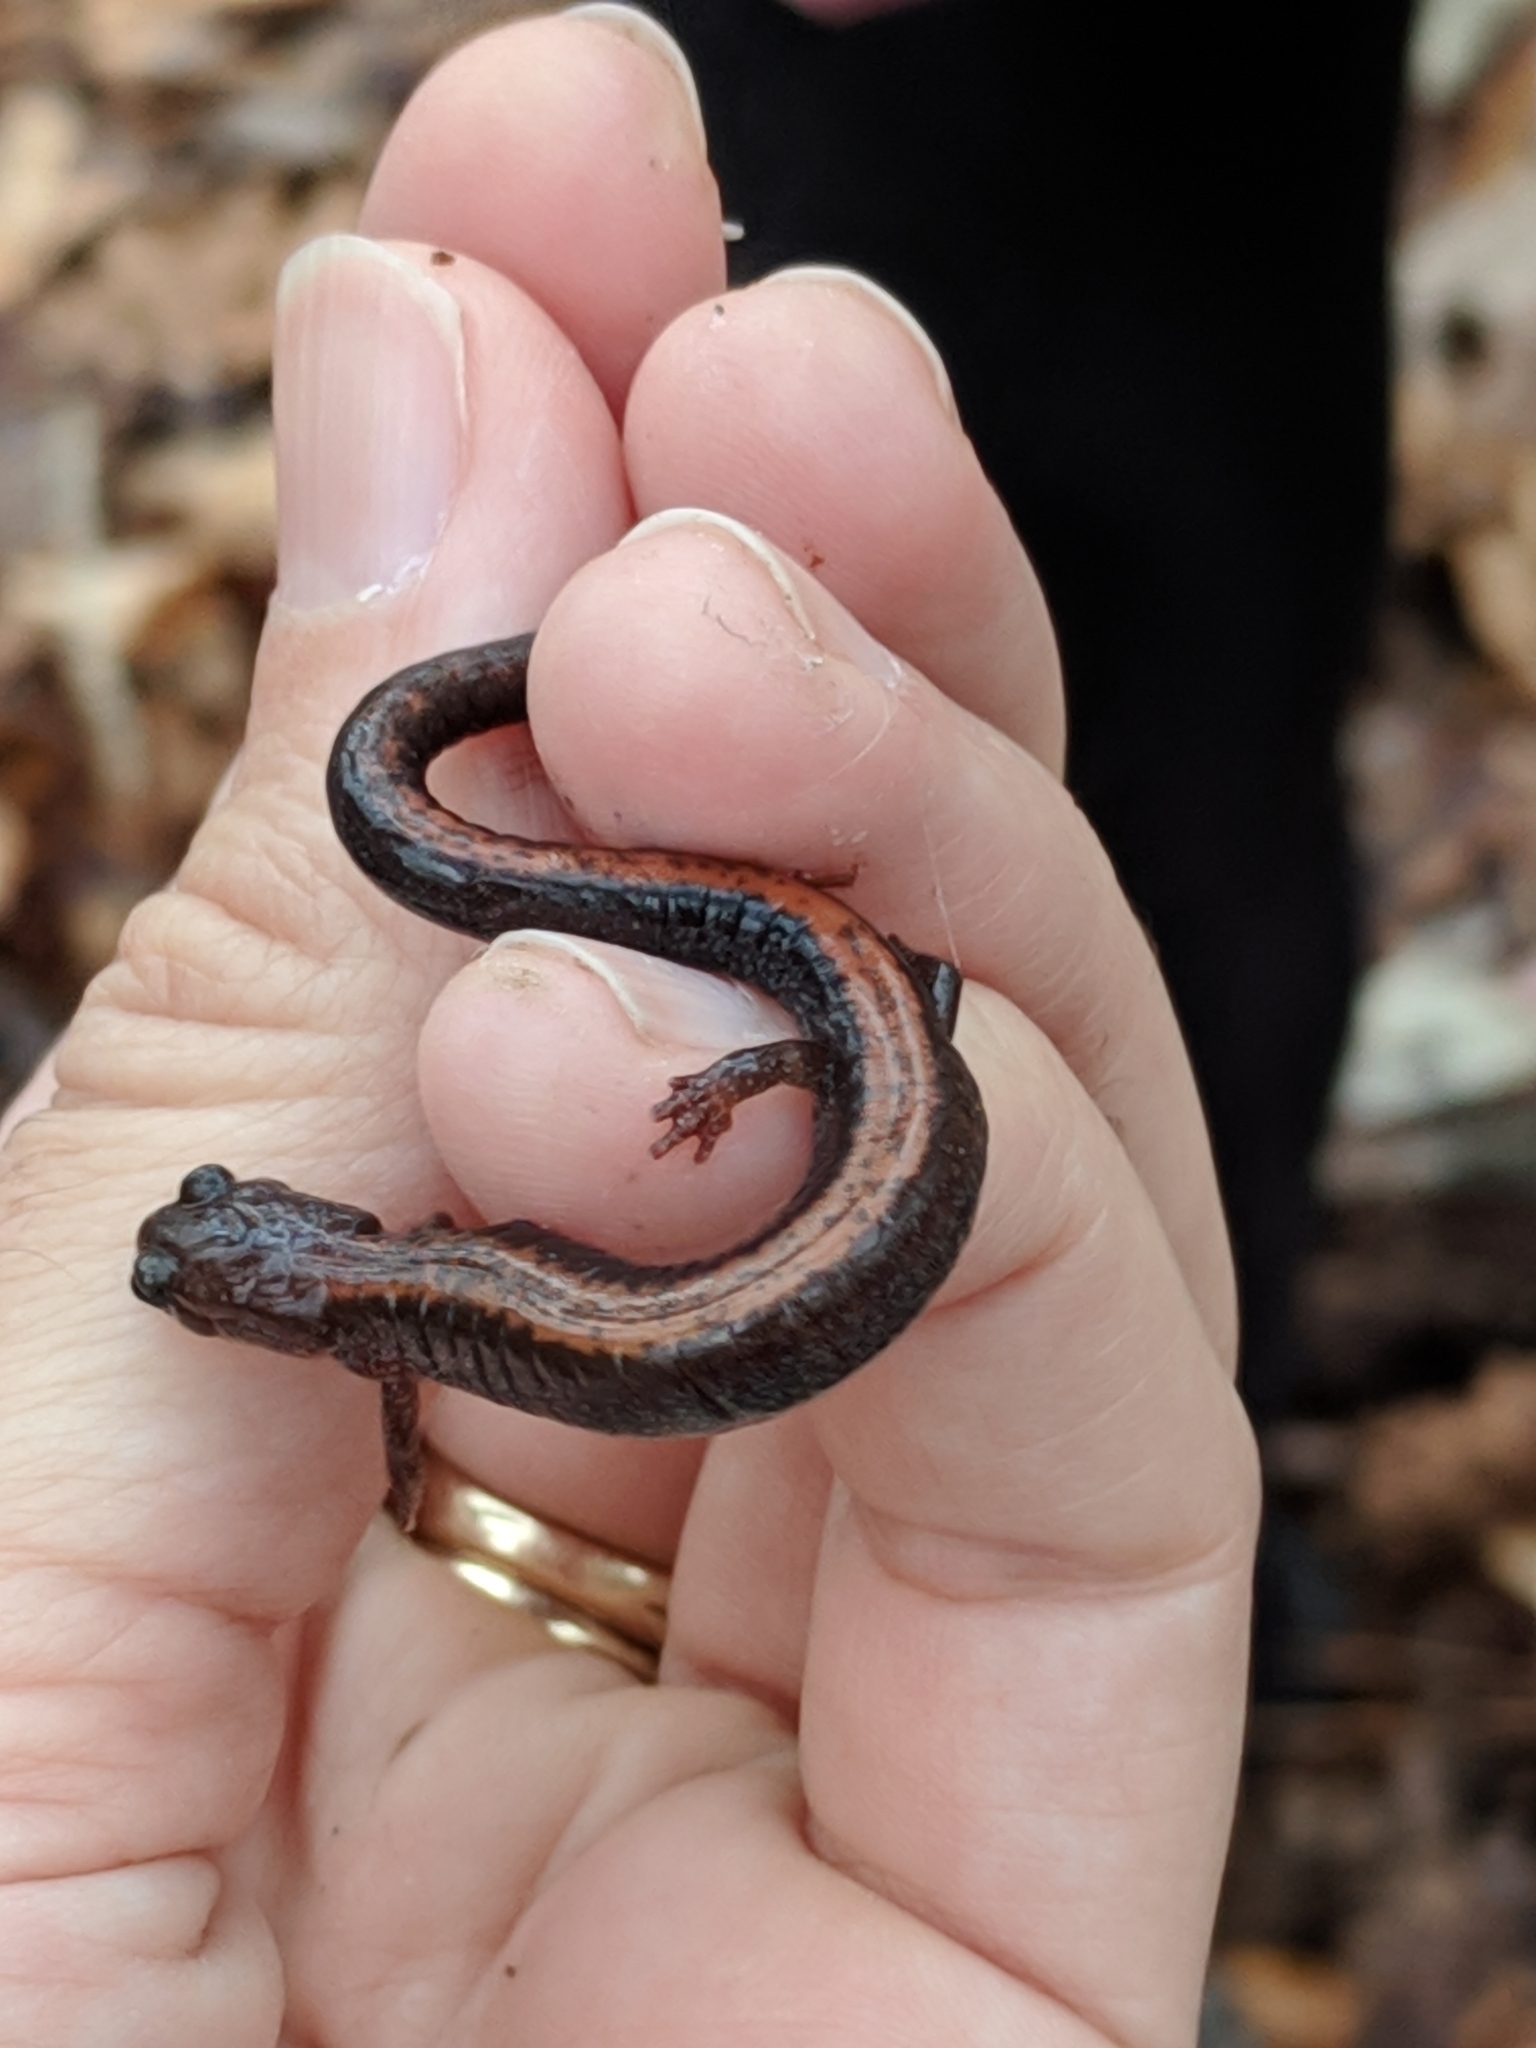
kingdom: Animalia
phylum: Chordata
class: Amphibia
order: Caudata
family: Plethodontidae
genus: Plethodon
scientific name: Plethodon cinereus
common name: Redback salamander
